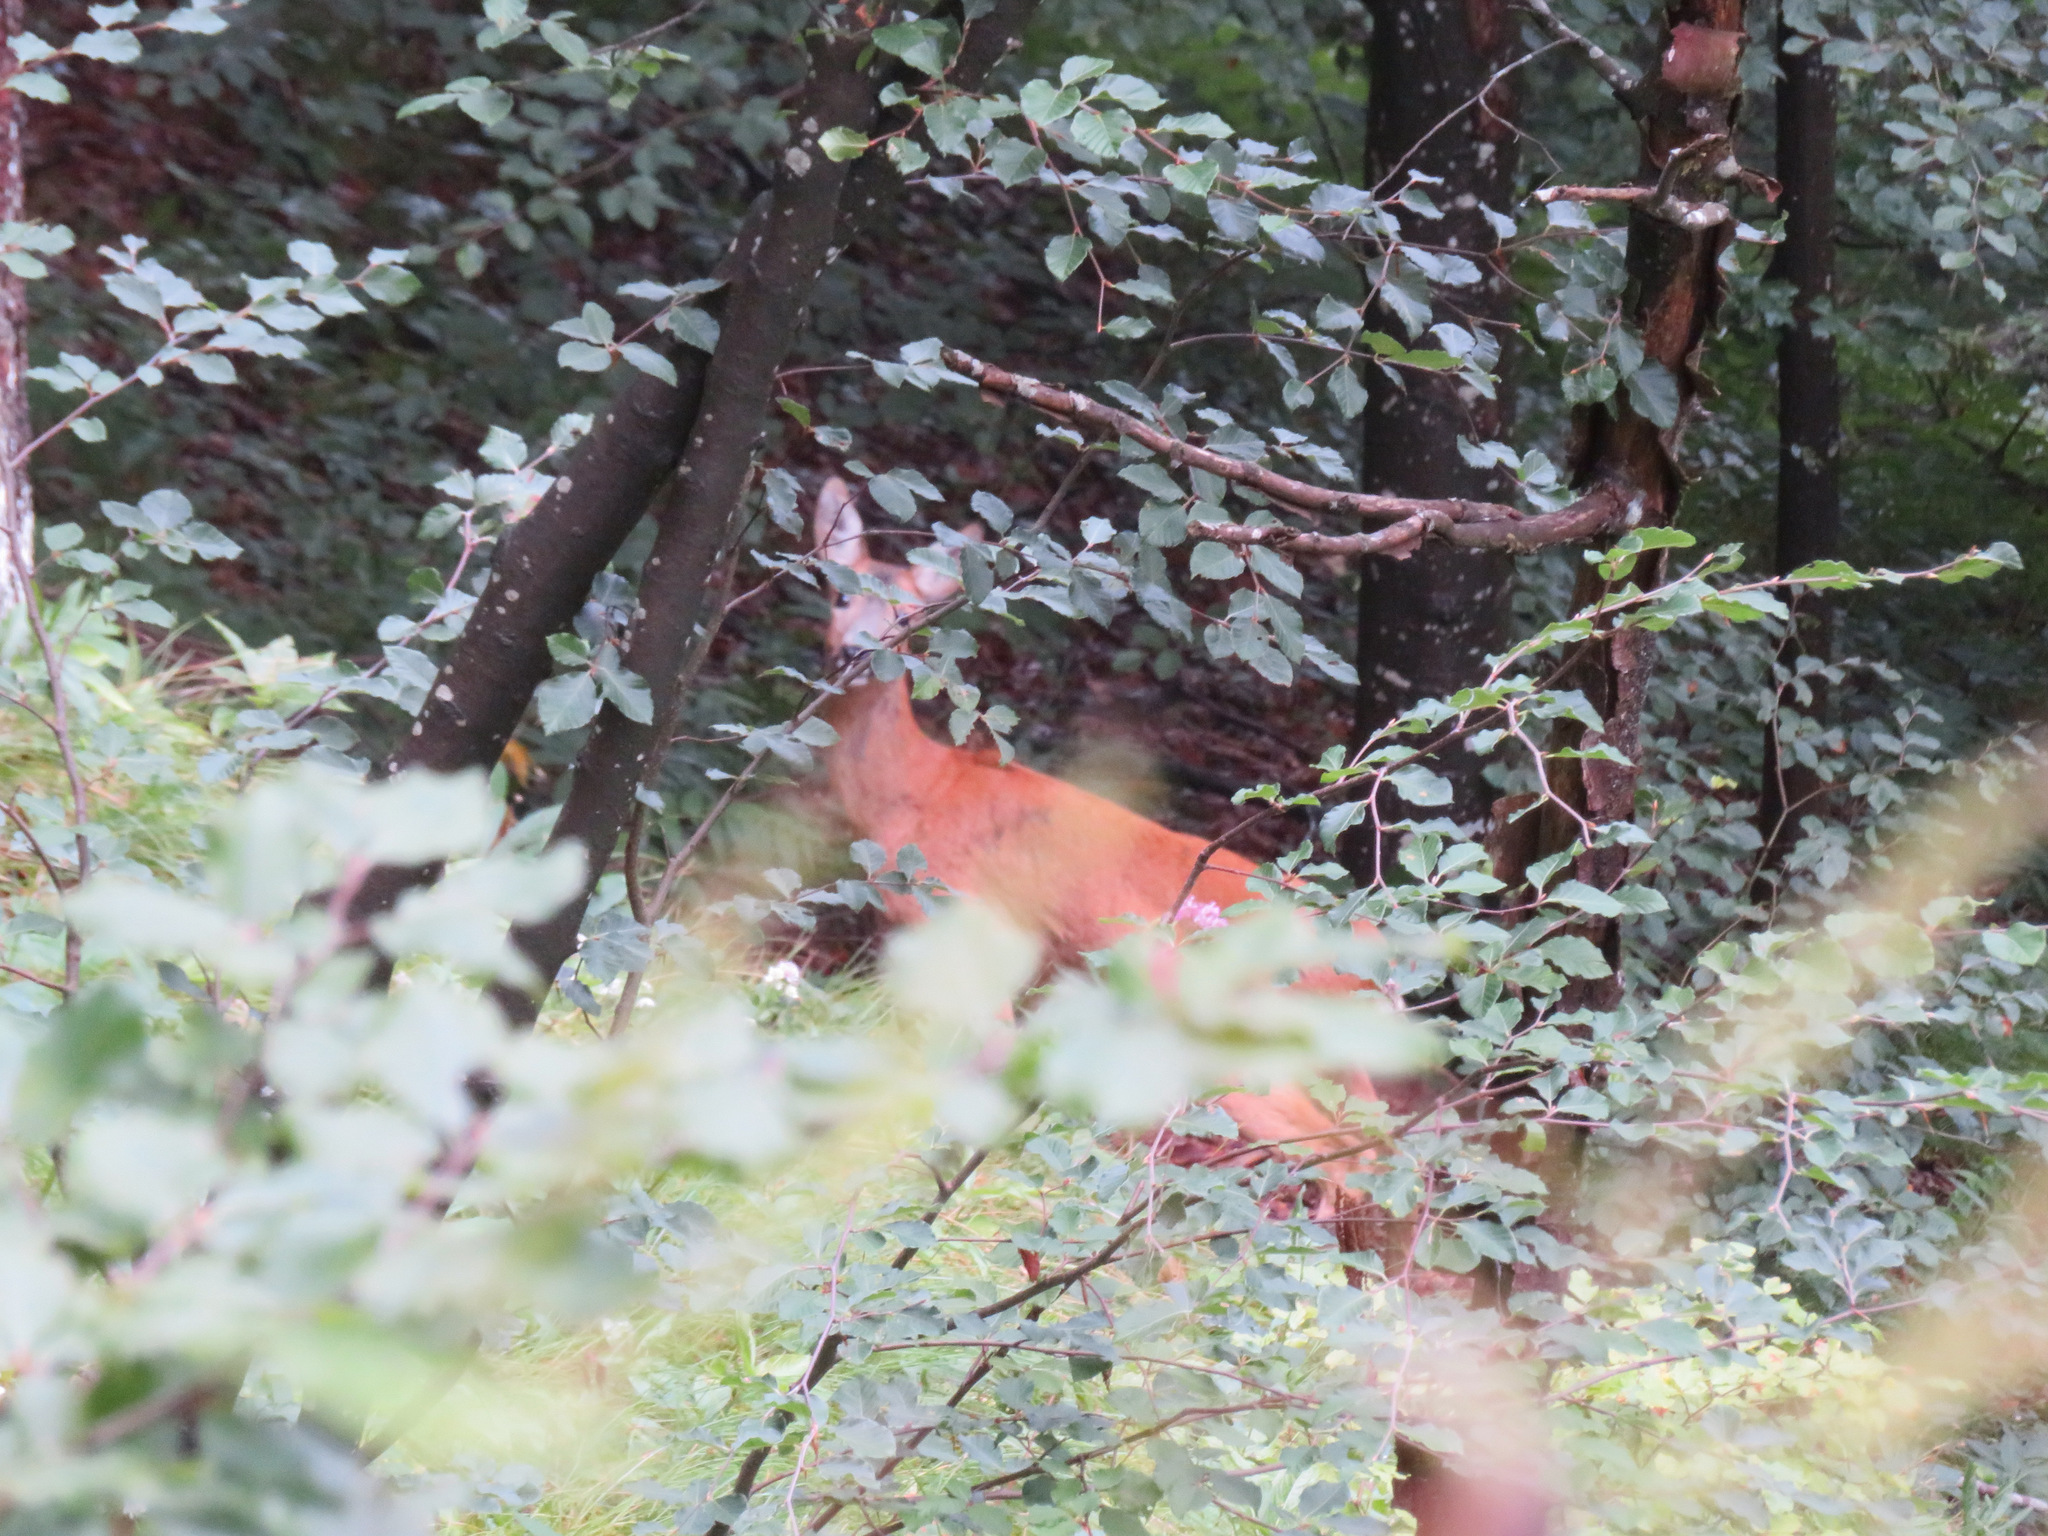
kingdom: Animalia
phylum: Chordata
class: Mammalia
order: Artiodactyla
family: Cervidae
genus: Capreolus
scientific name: Capreolus capreolus
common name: Western roe deer
